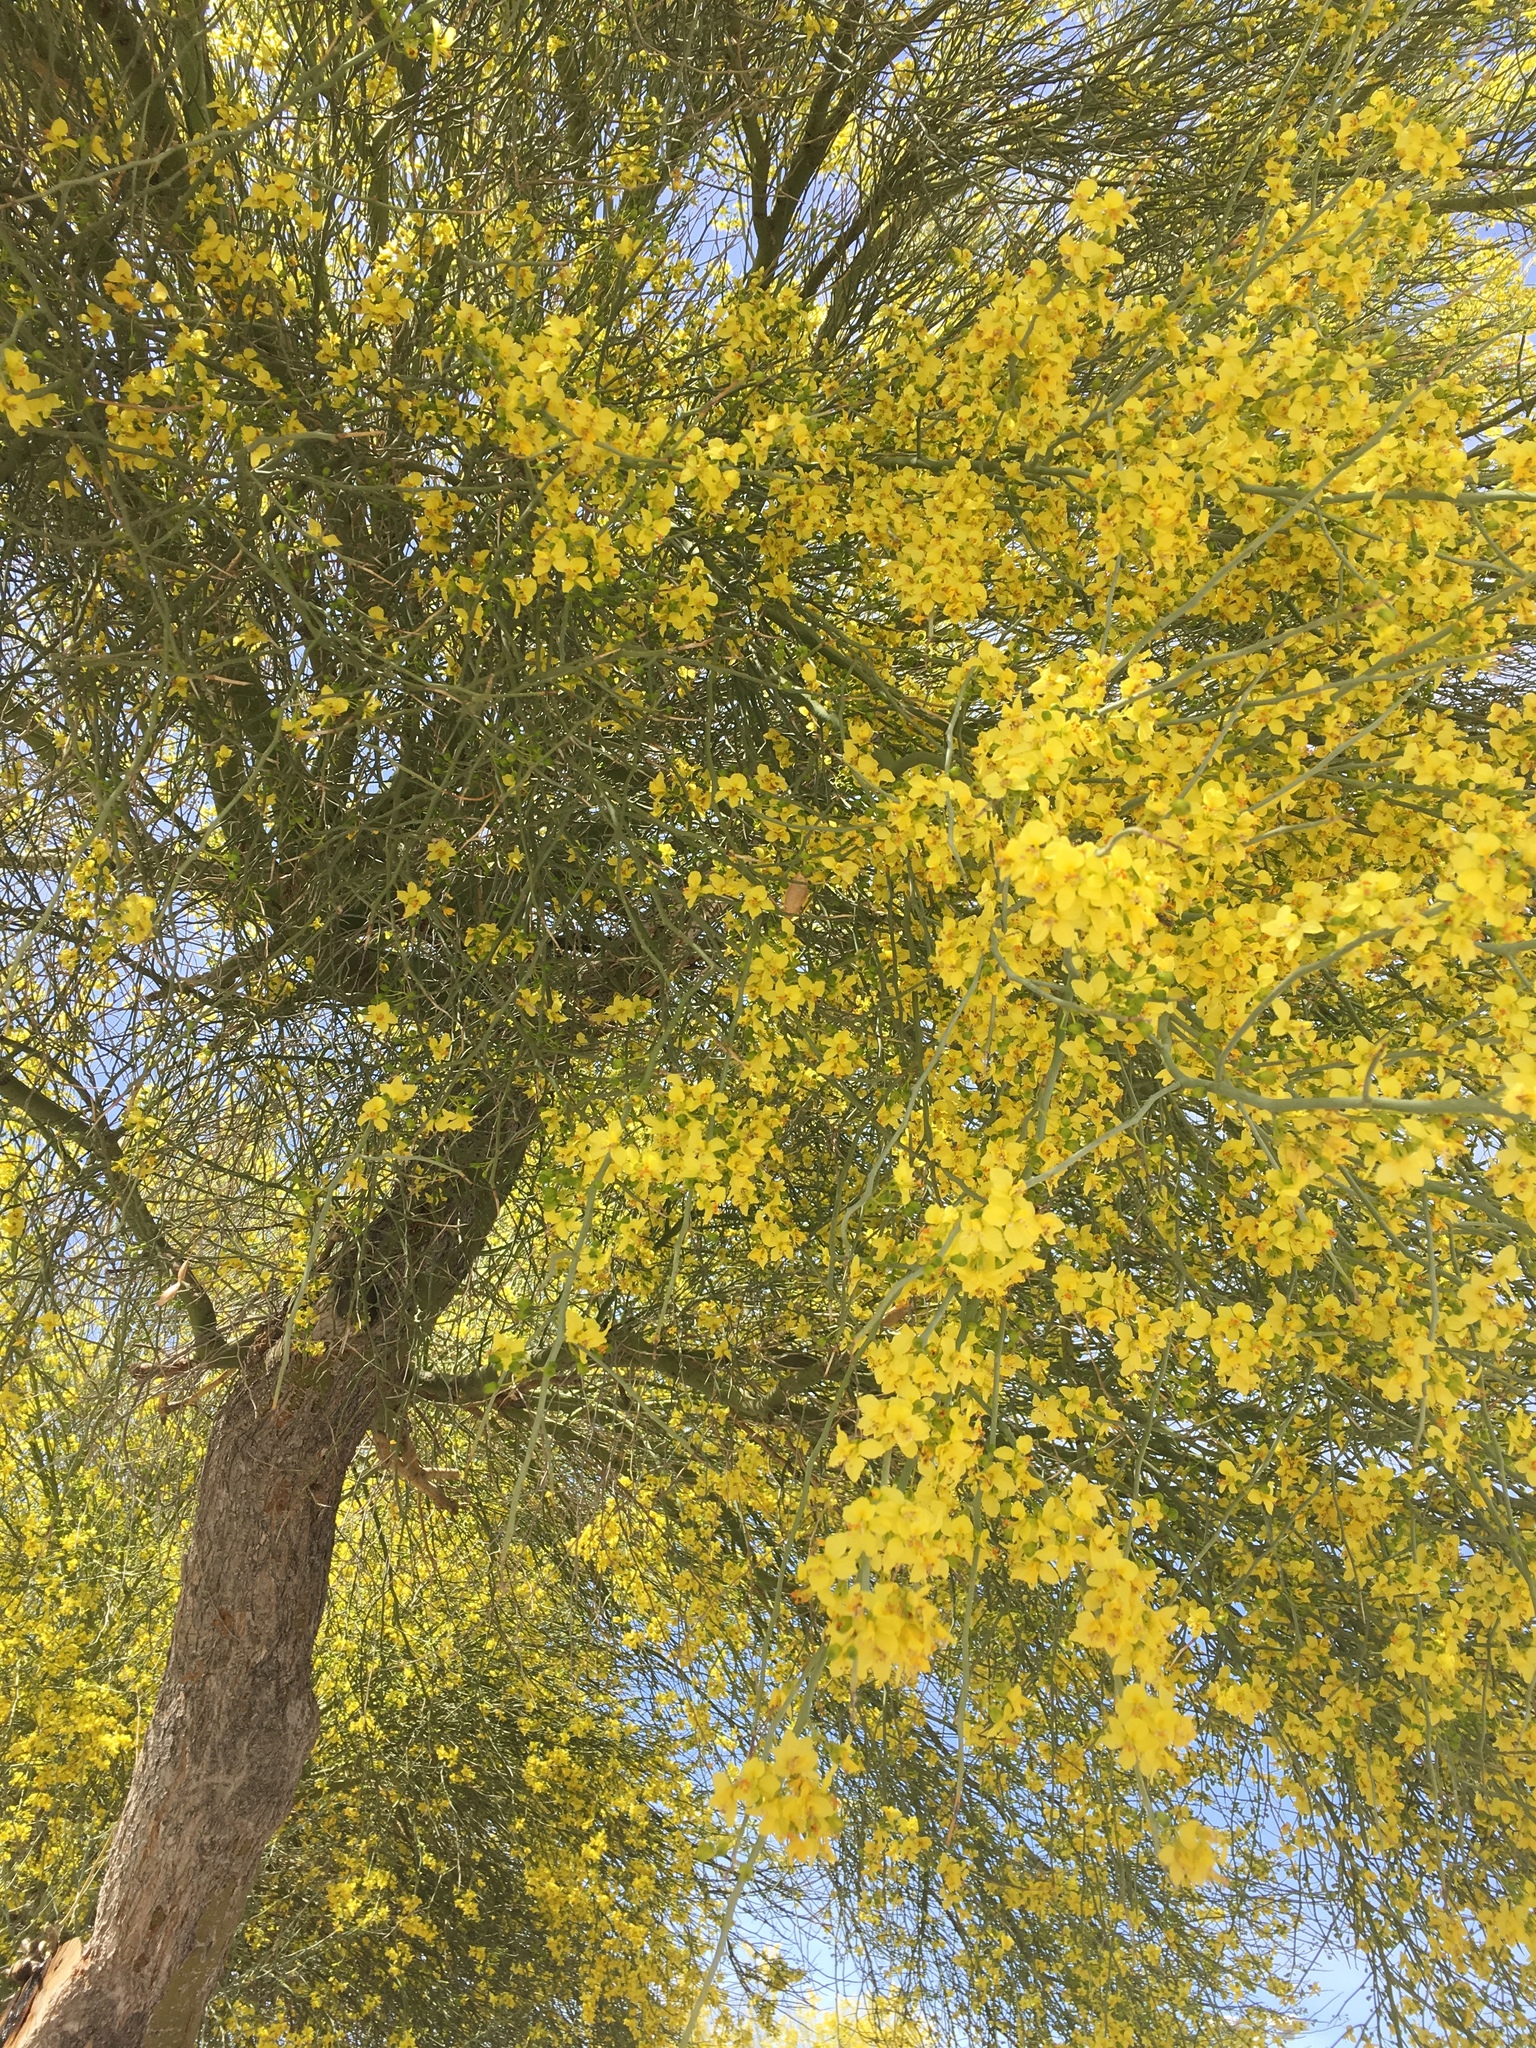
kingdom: Plantae
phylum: Tracheophyta
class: Magnoliopsida
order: Fabales
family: Fabaceae
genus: Parkinsonia
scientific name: Parkinsonia aculeata
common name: Jerusalem thorn
